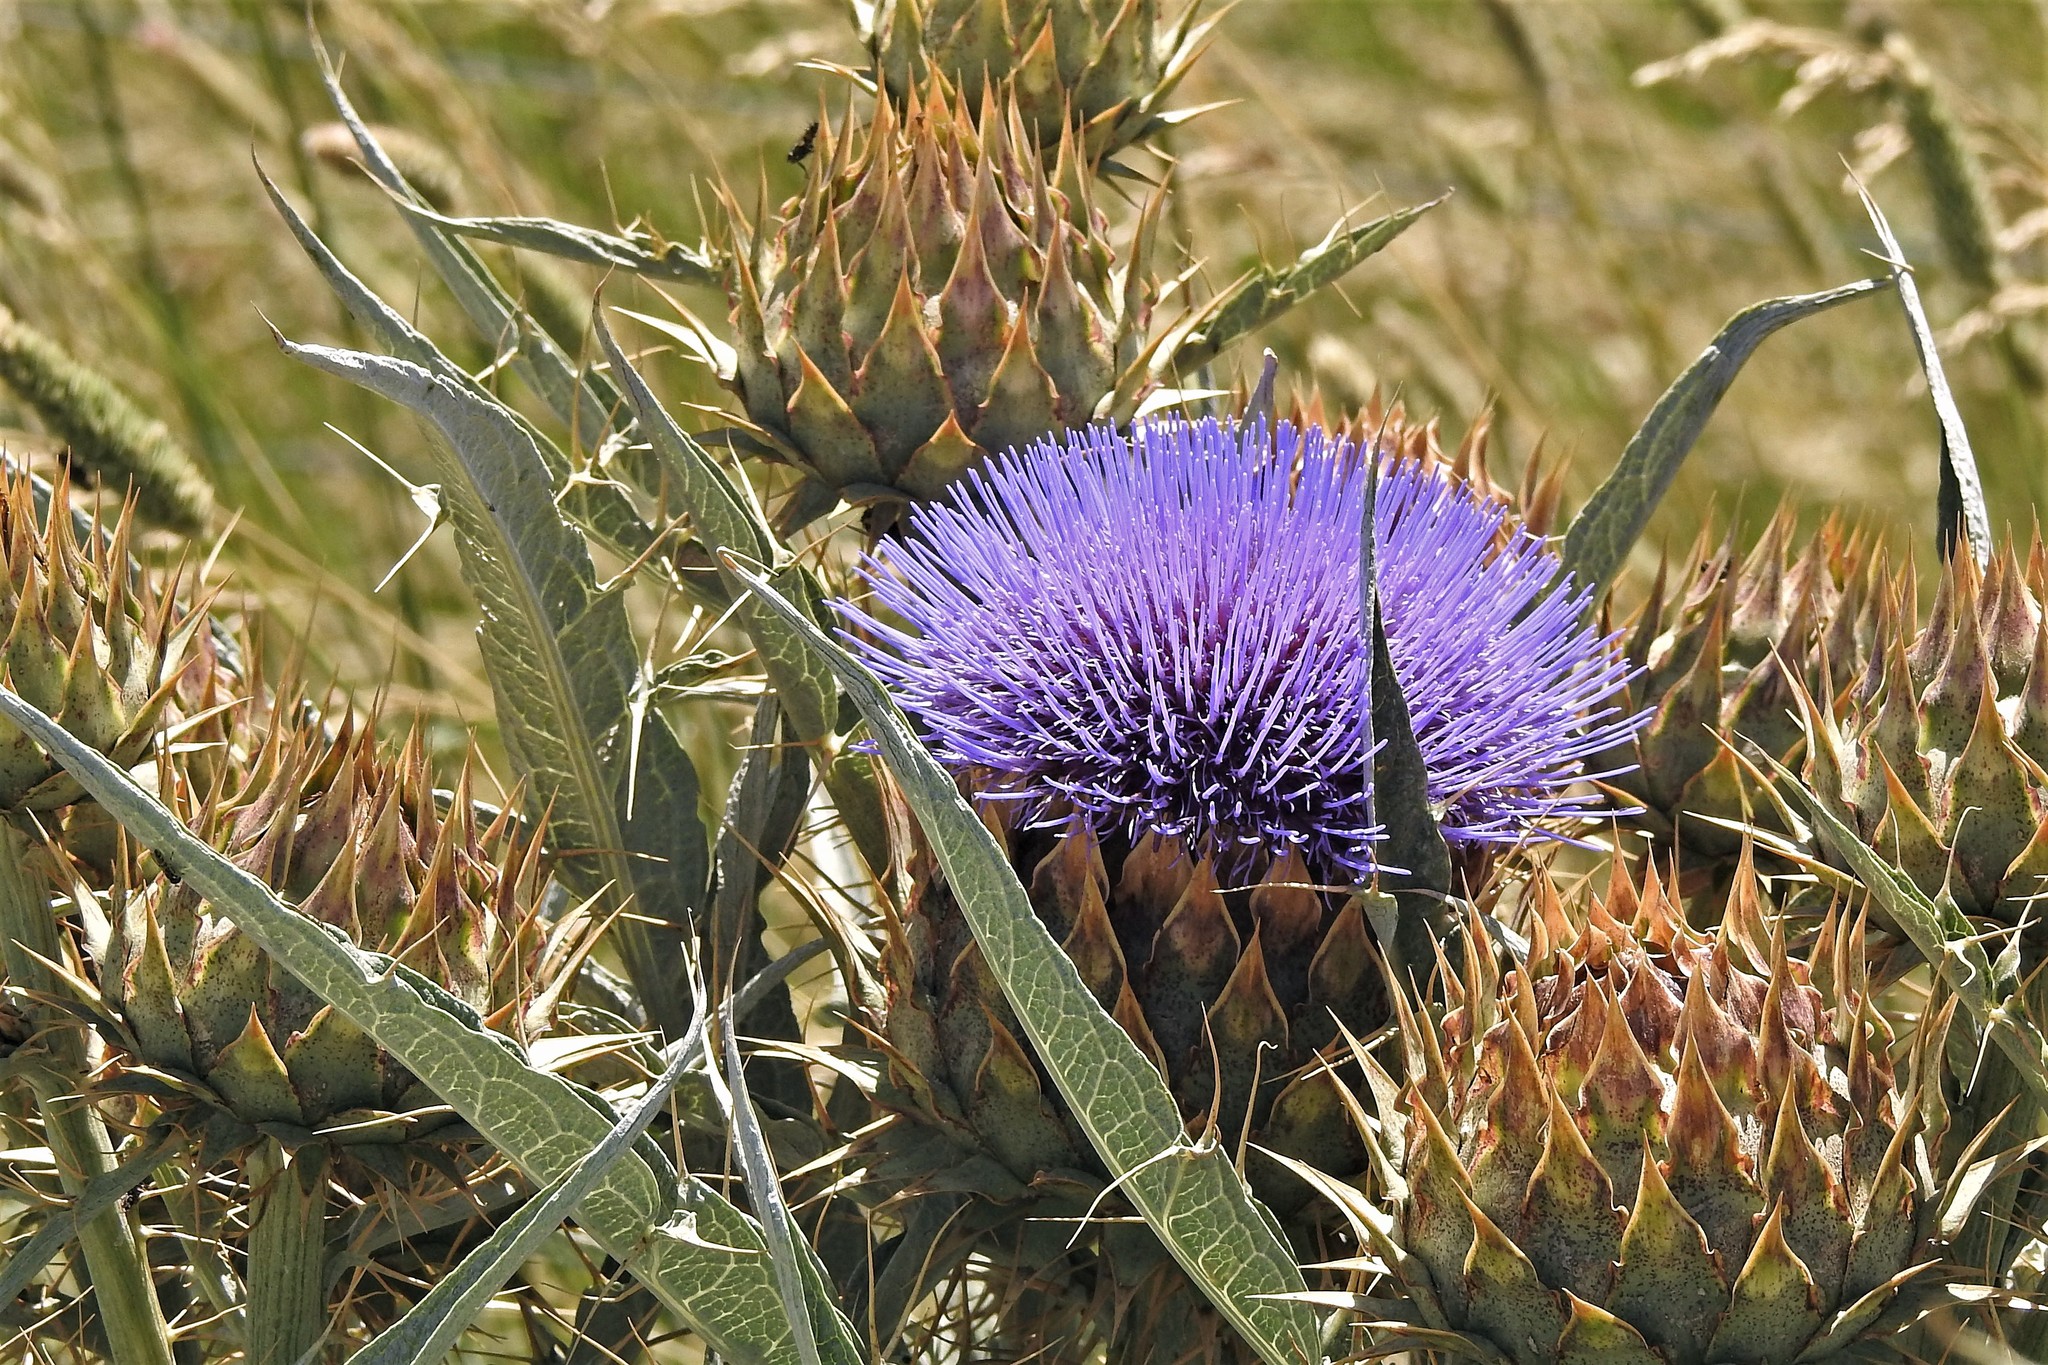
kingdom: Plantae
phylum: Tracheophyta
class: Magnoliopsida
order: Asterales
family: Asteraceae
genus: Cynara
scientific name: Cynara cardunculus
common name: Globe artichoke
